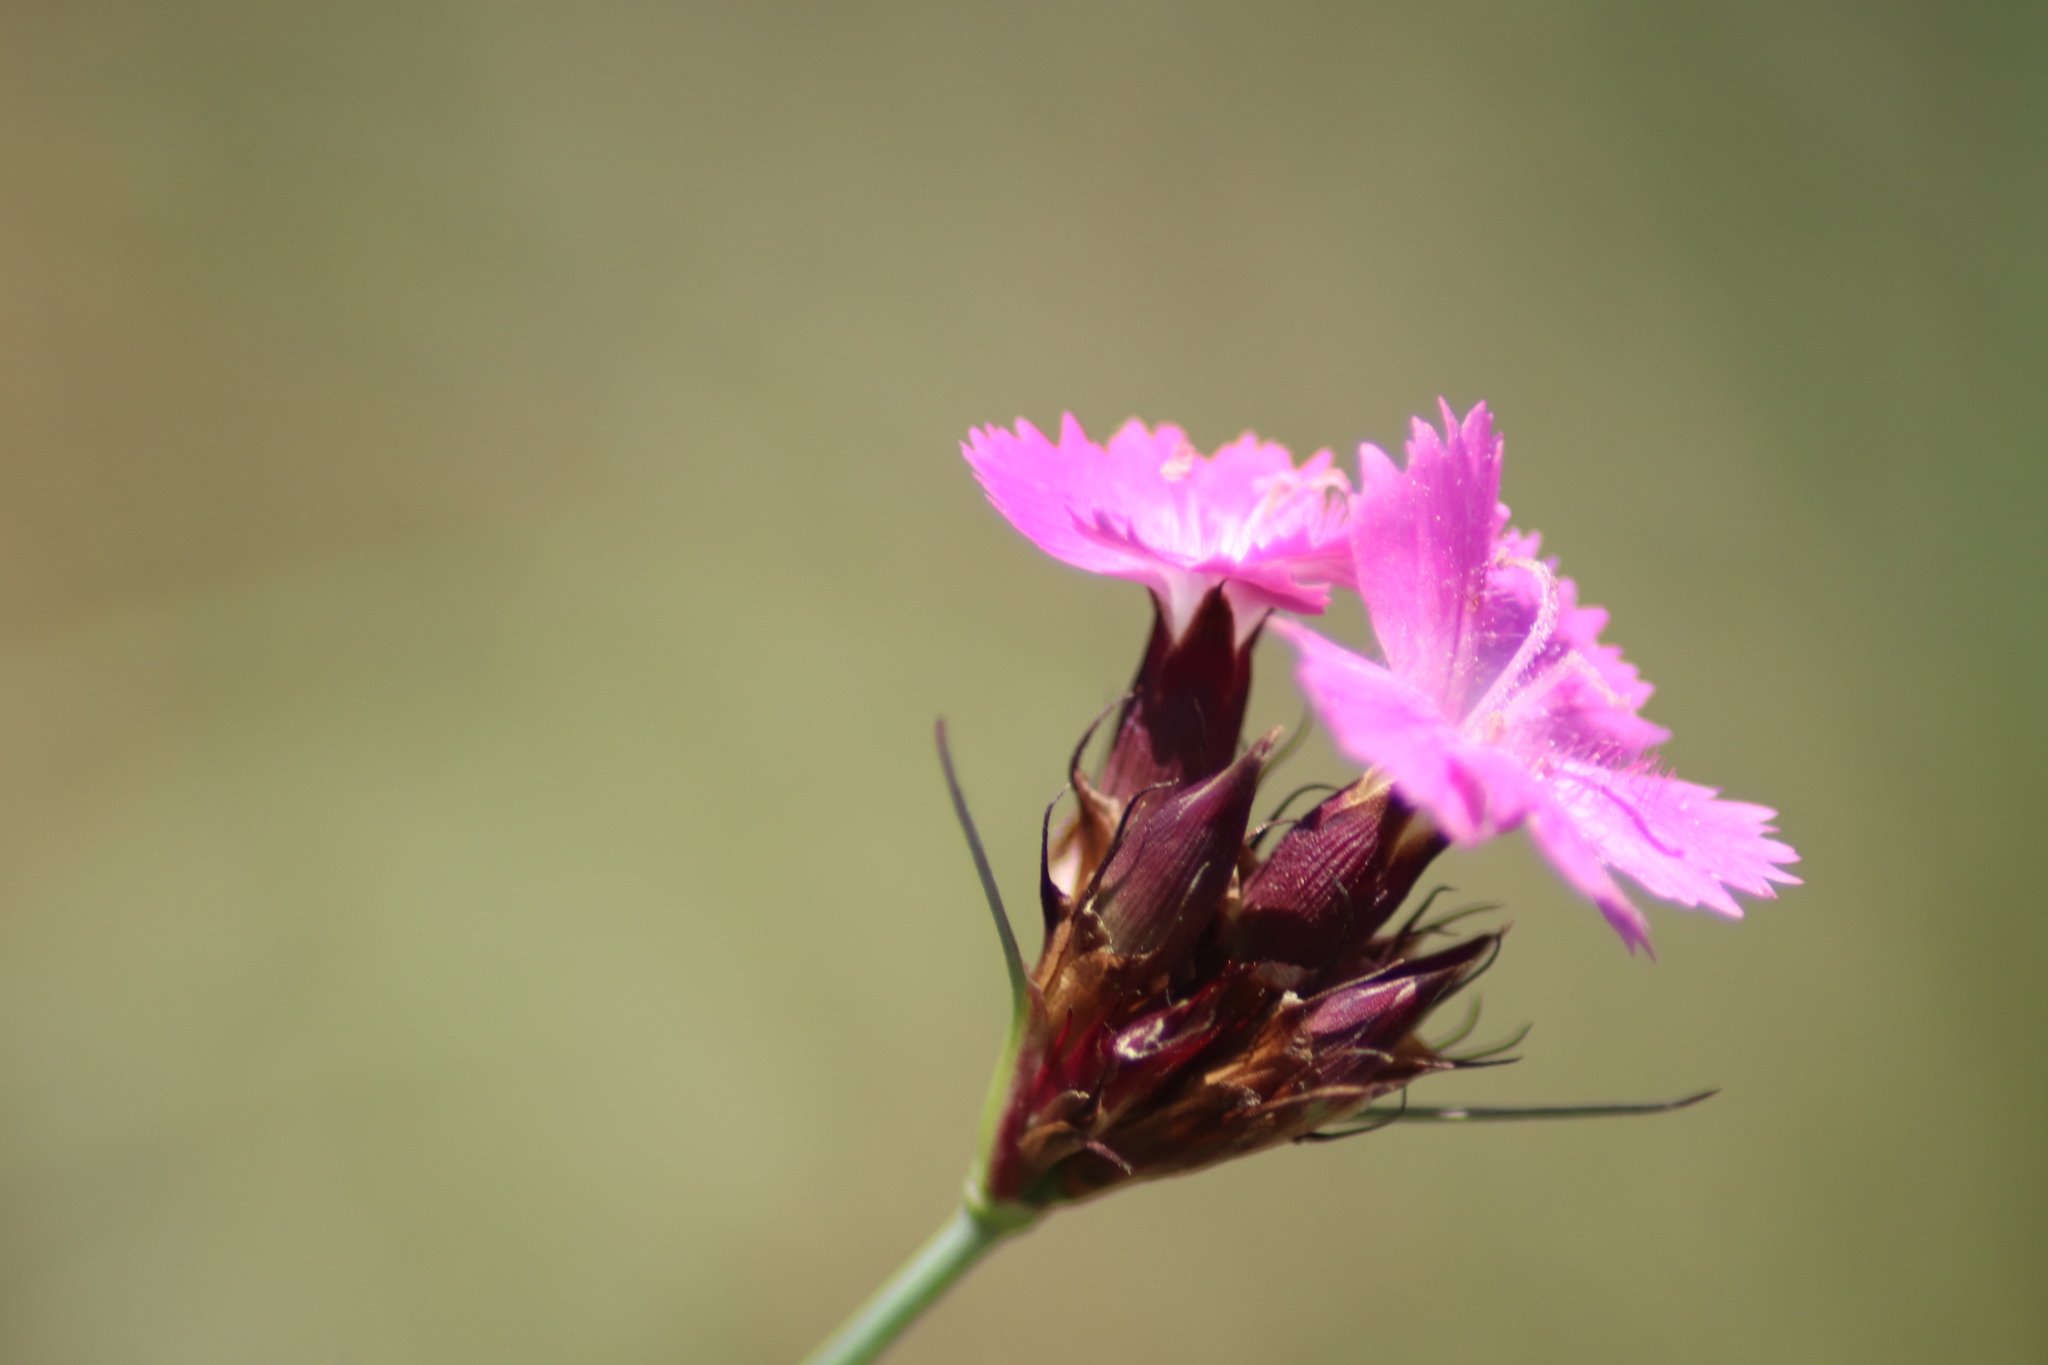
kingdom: Plantae
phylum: Tracheophyta
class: Magnoliopsida
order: Caryophyllales
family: Caryophyllaceae
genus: Dianthus
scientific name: Dianthus carthusianorum
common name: Carthusian pink
